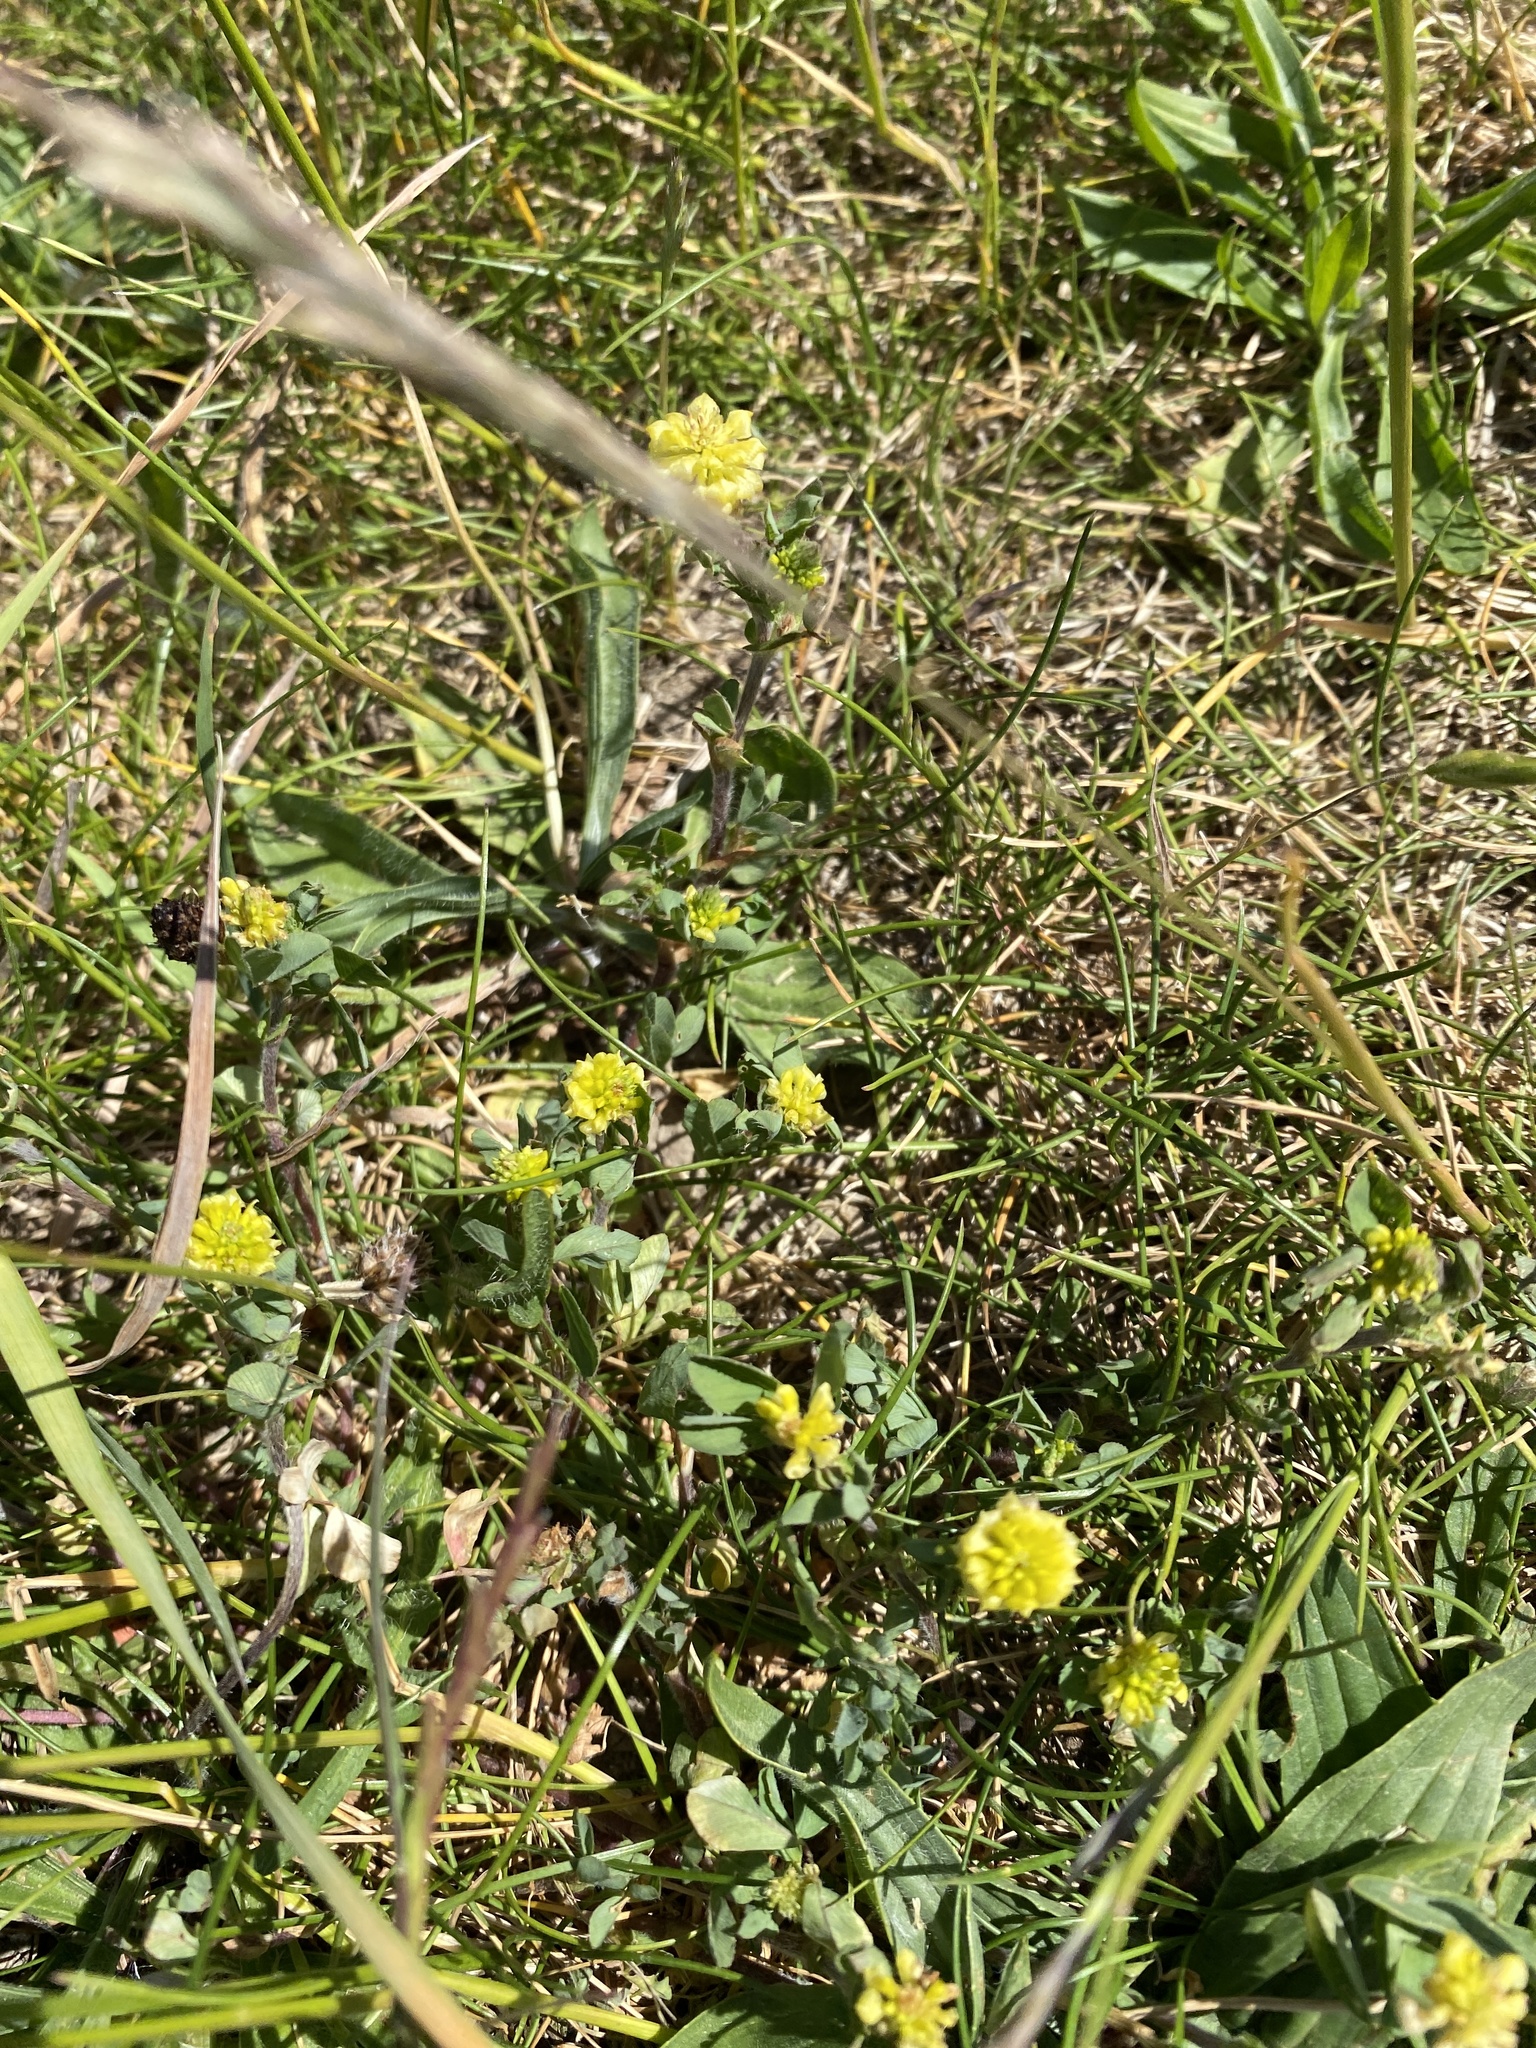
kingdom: Plantae
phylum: Tracheophyta
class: Magnoliopsida
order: Fabales
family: Fabaceae
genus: Trifolium
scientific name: Trifolium campestre
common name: Field clover
